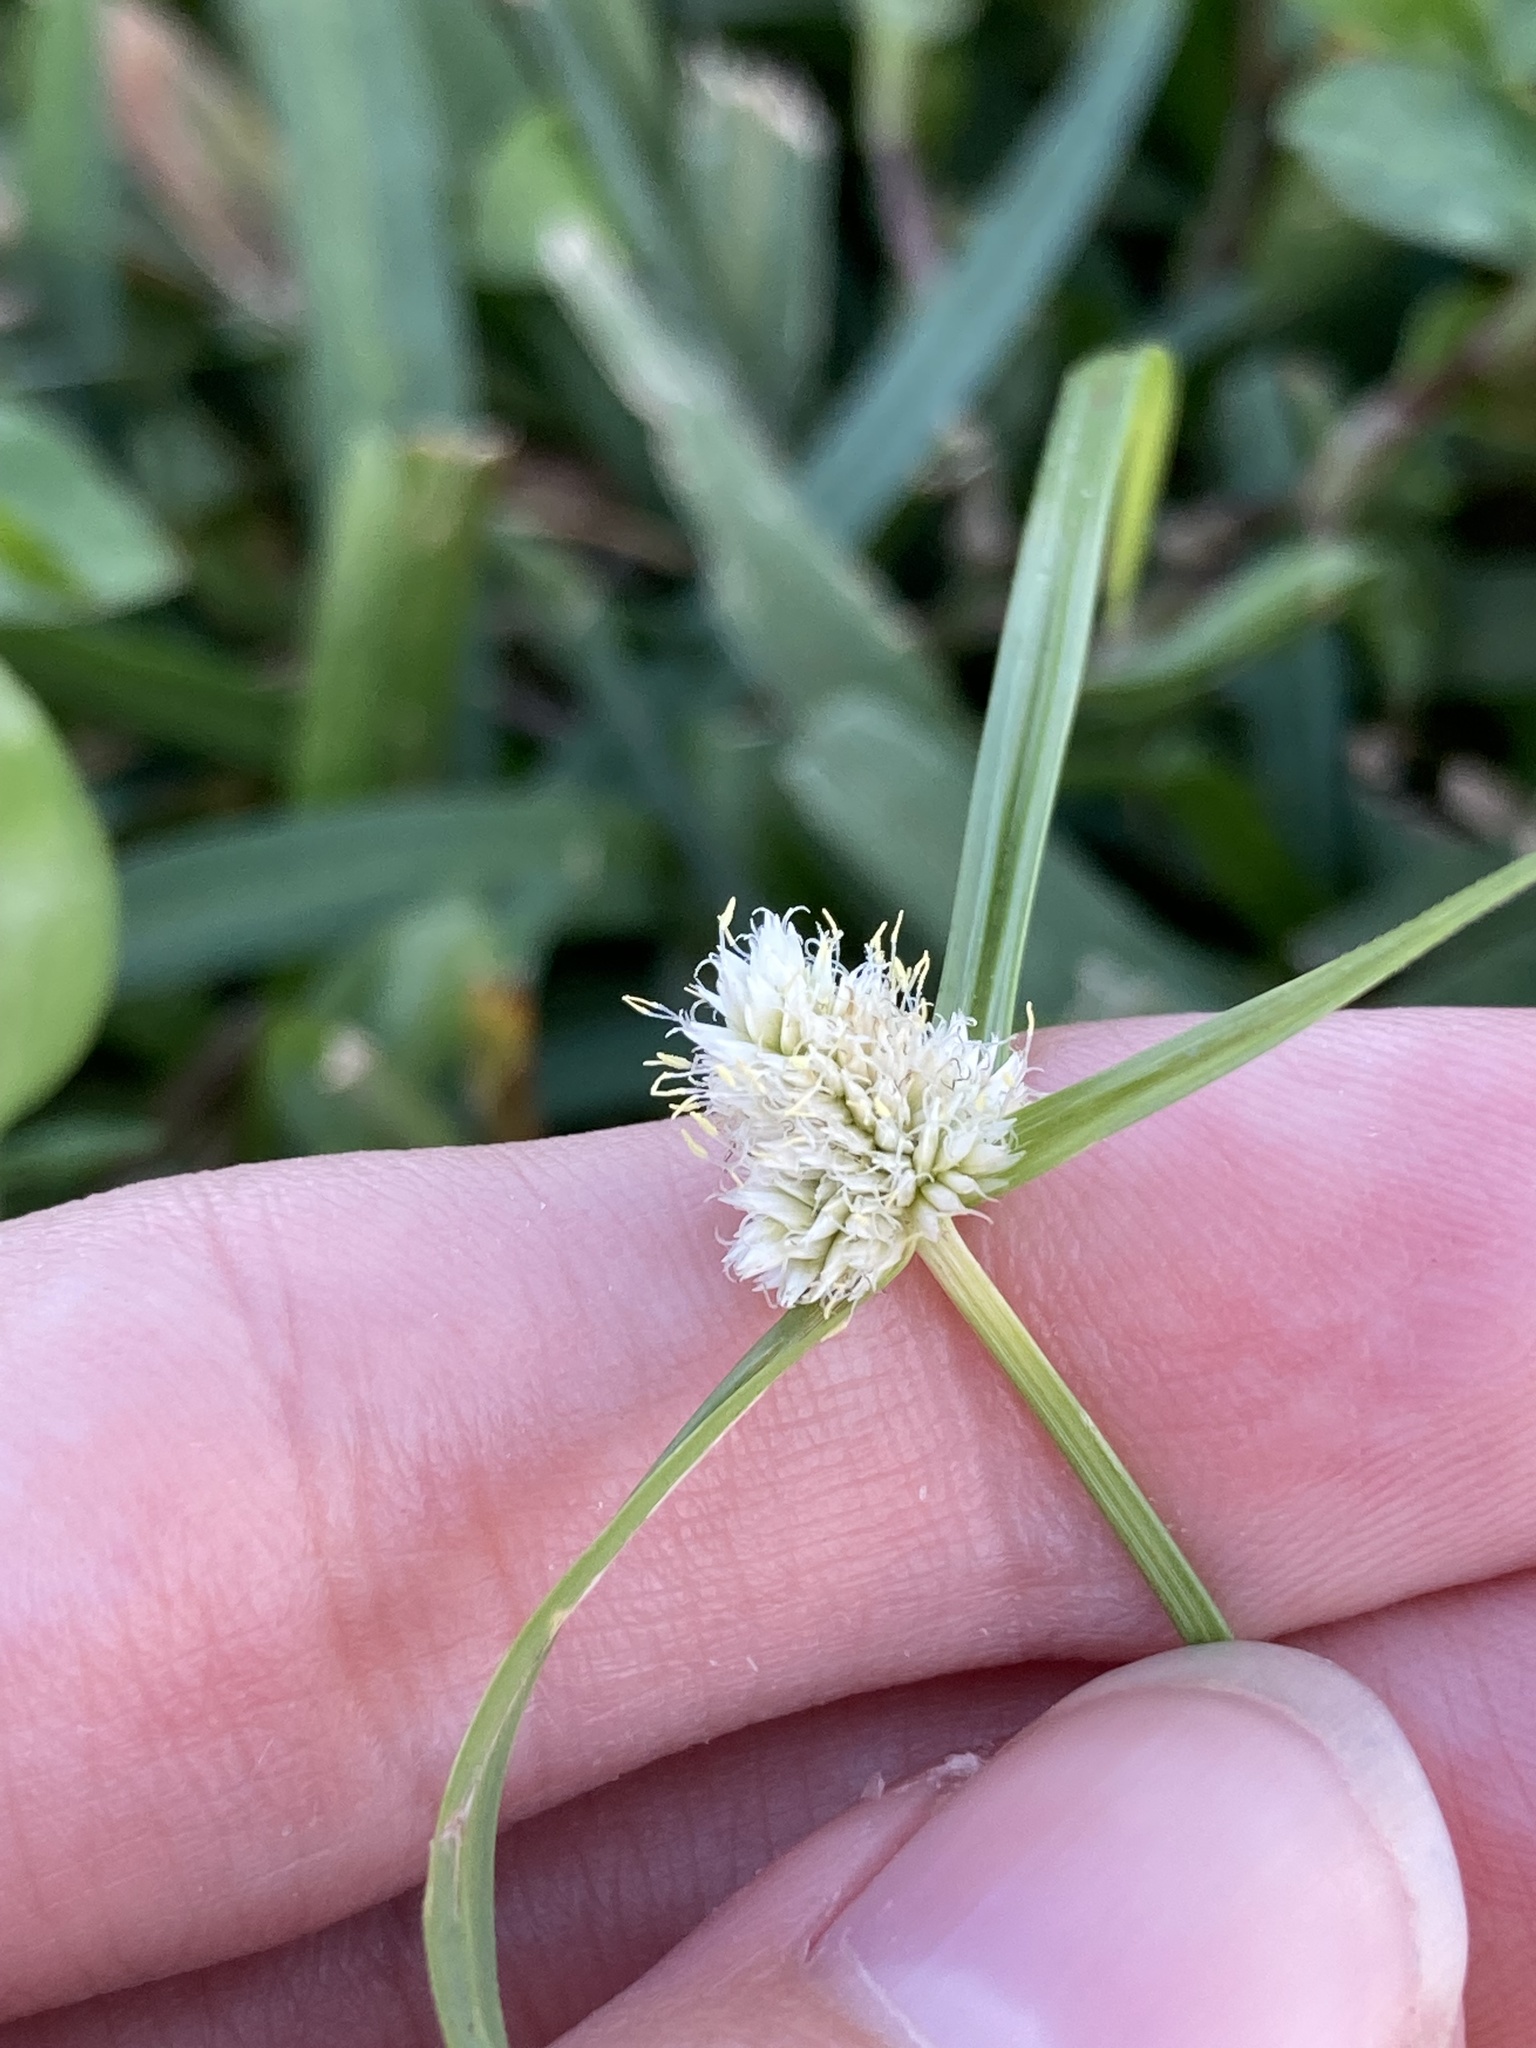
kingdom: Plantae
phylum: Tracheophyta
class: Liliopsida
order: Poales
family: Cyperaceae
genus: Cyperus
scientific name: Cyperus richardii
